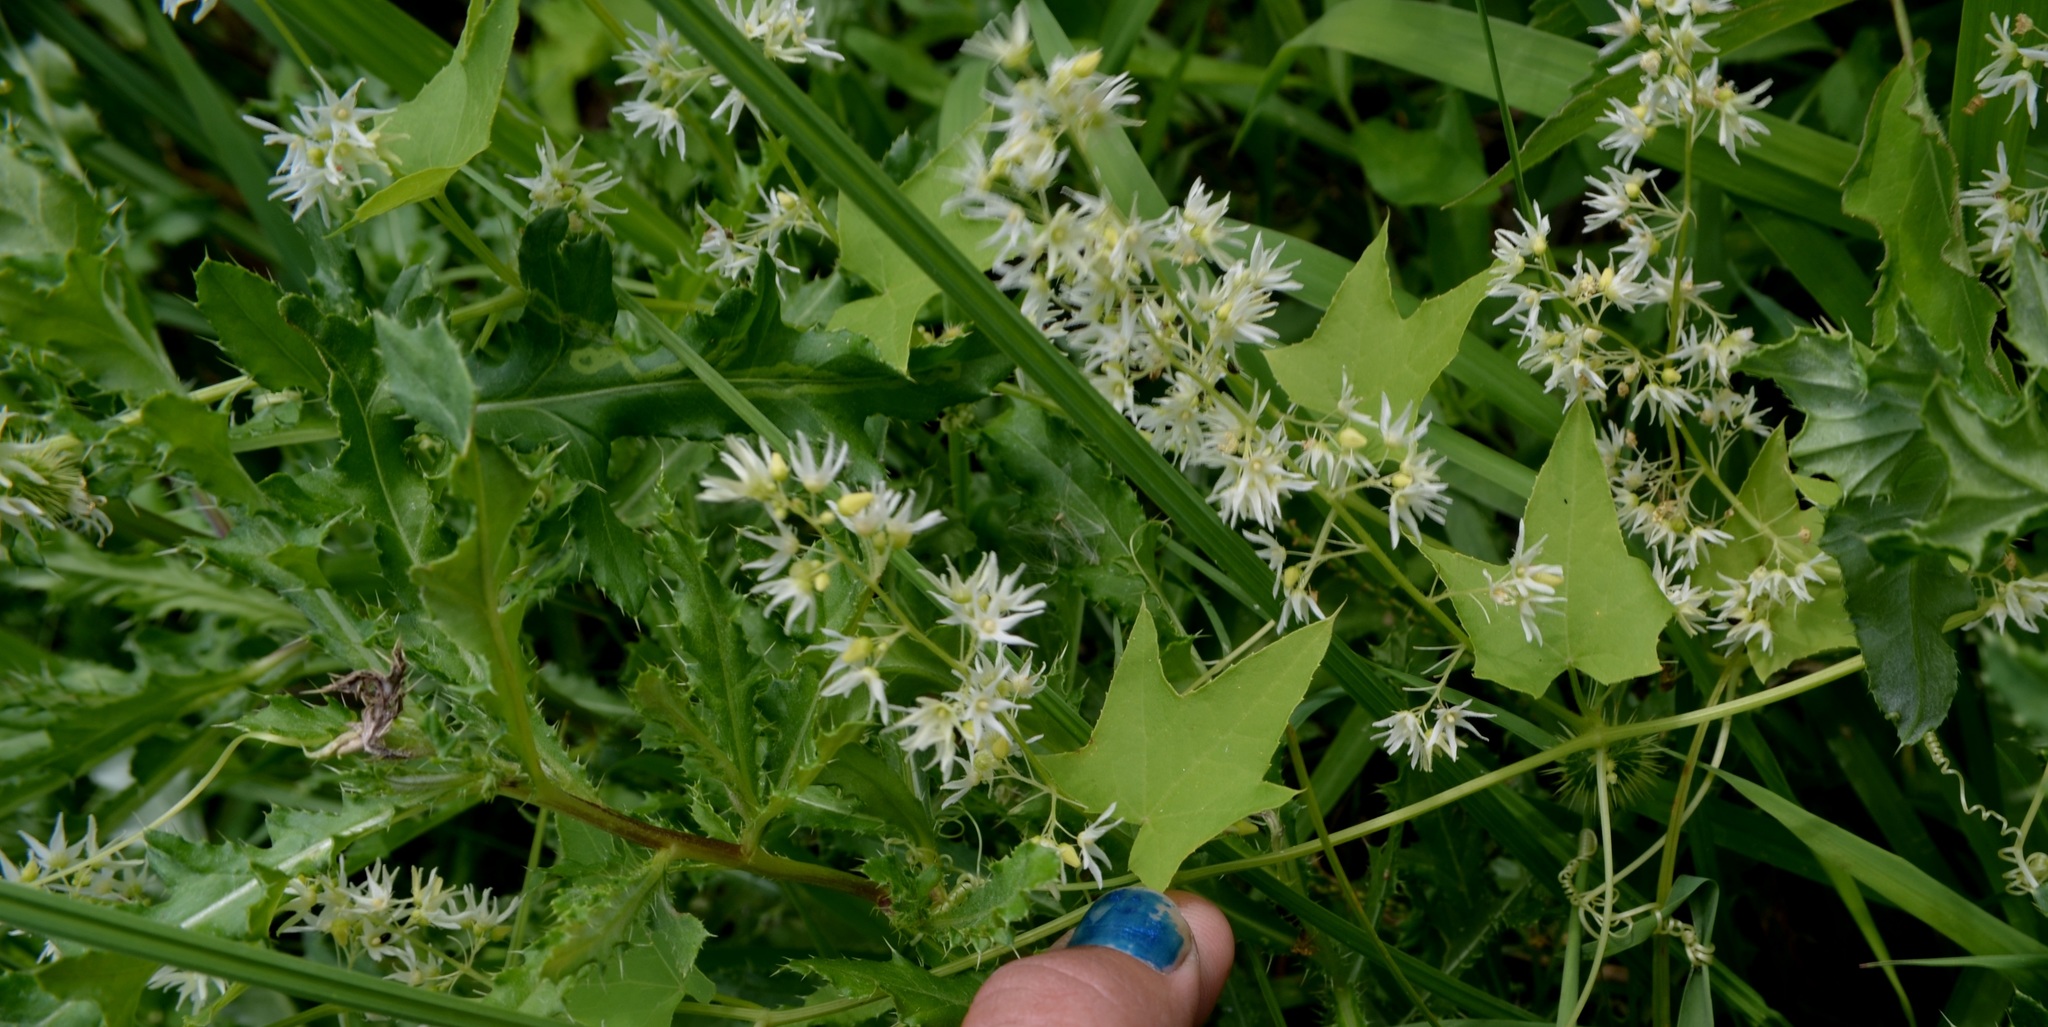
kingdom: Plantae
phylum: Tracheophyta
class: Magnoliopsida
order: Cucurbitales
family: Cucurbitaceae
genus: Echinocystis
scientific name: Echinocystis lobata
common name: Wild cucumber
